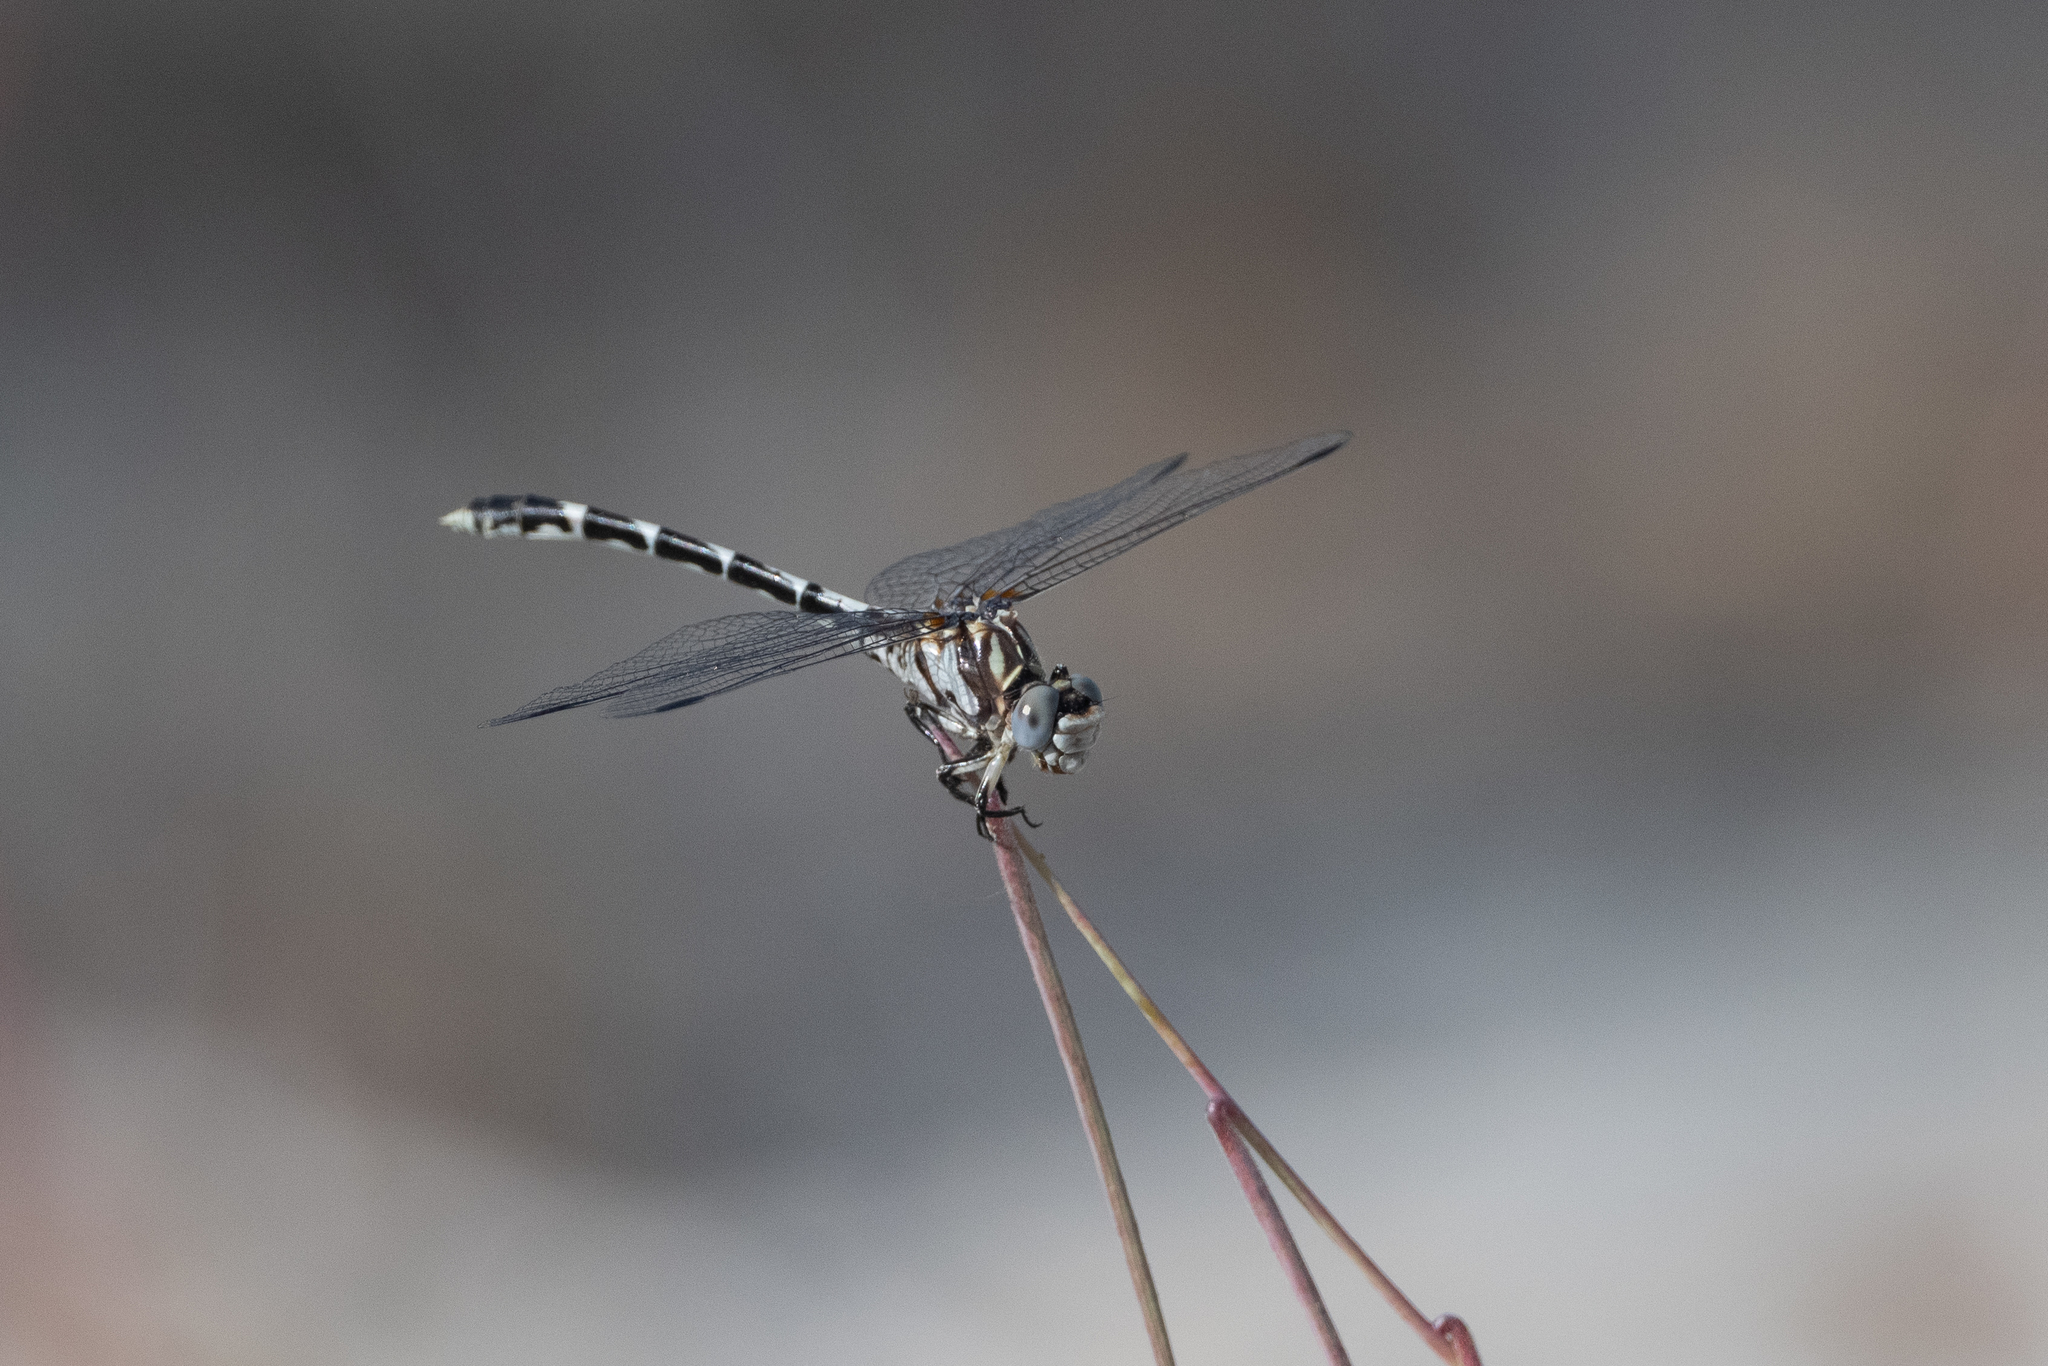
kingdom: Animalia
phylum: Arthropoda
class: Insecta
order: Odonata
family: Gomphidae
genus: Progomphus
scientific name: Progomphus borealis
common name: Gray sanddragon
